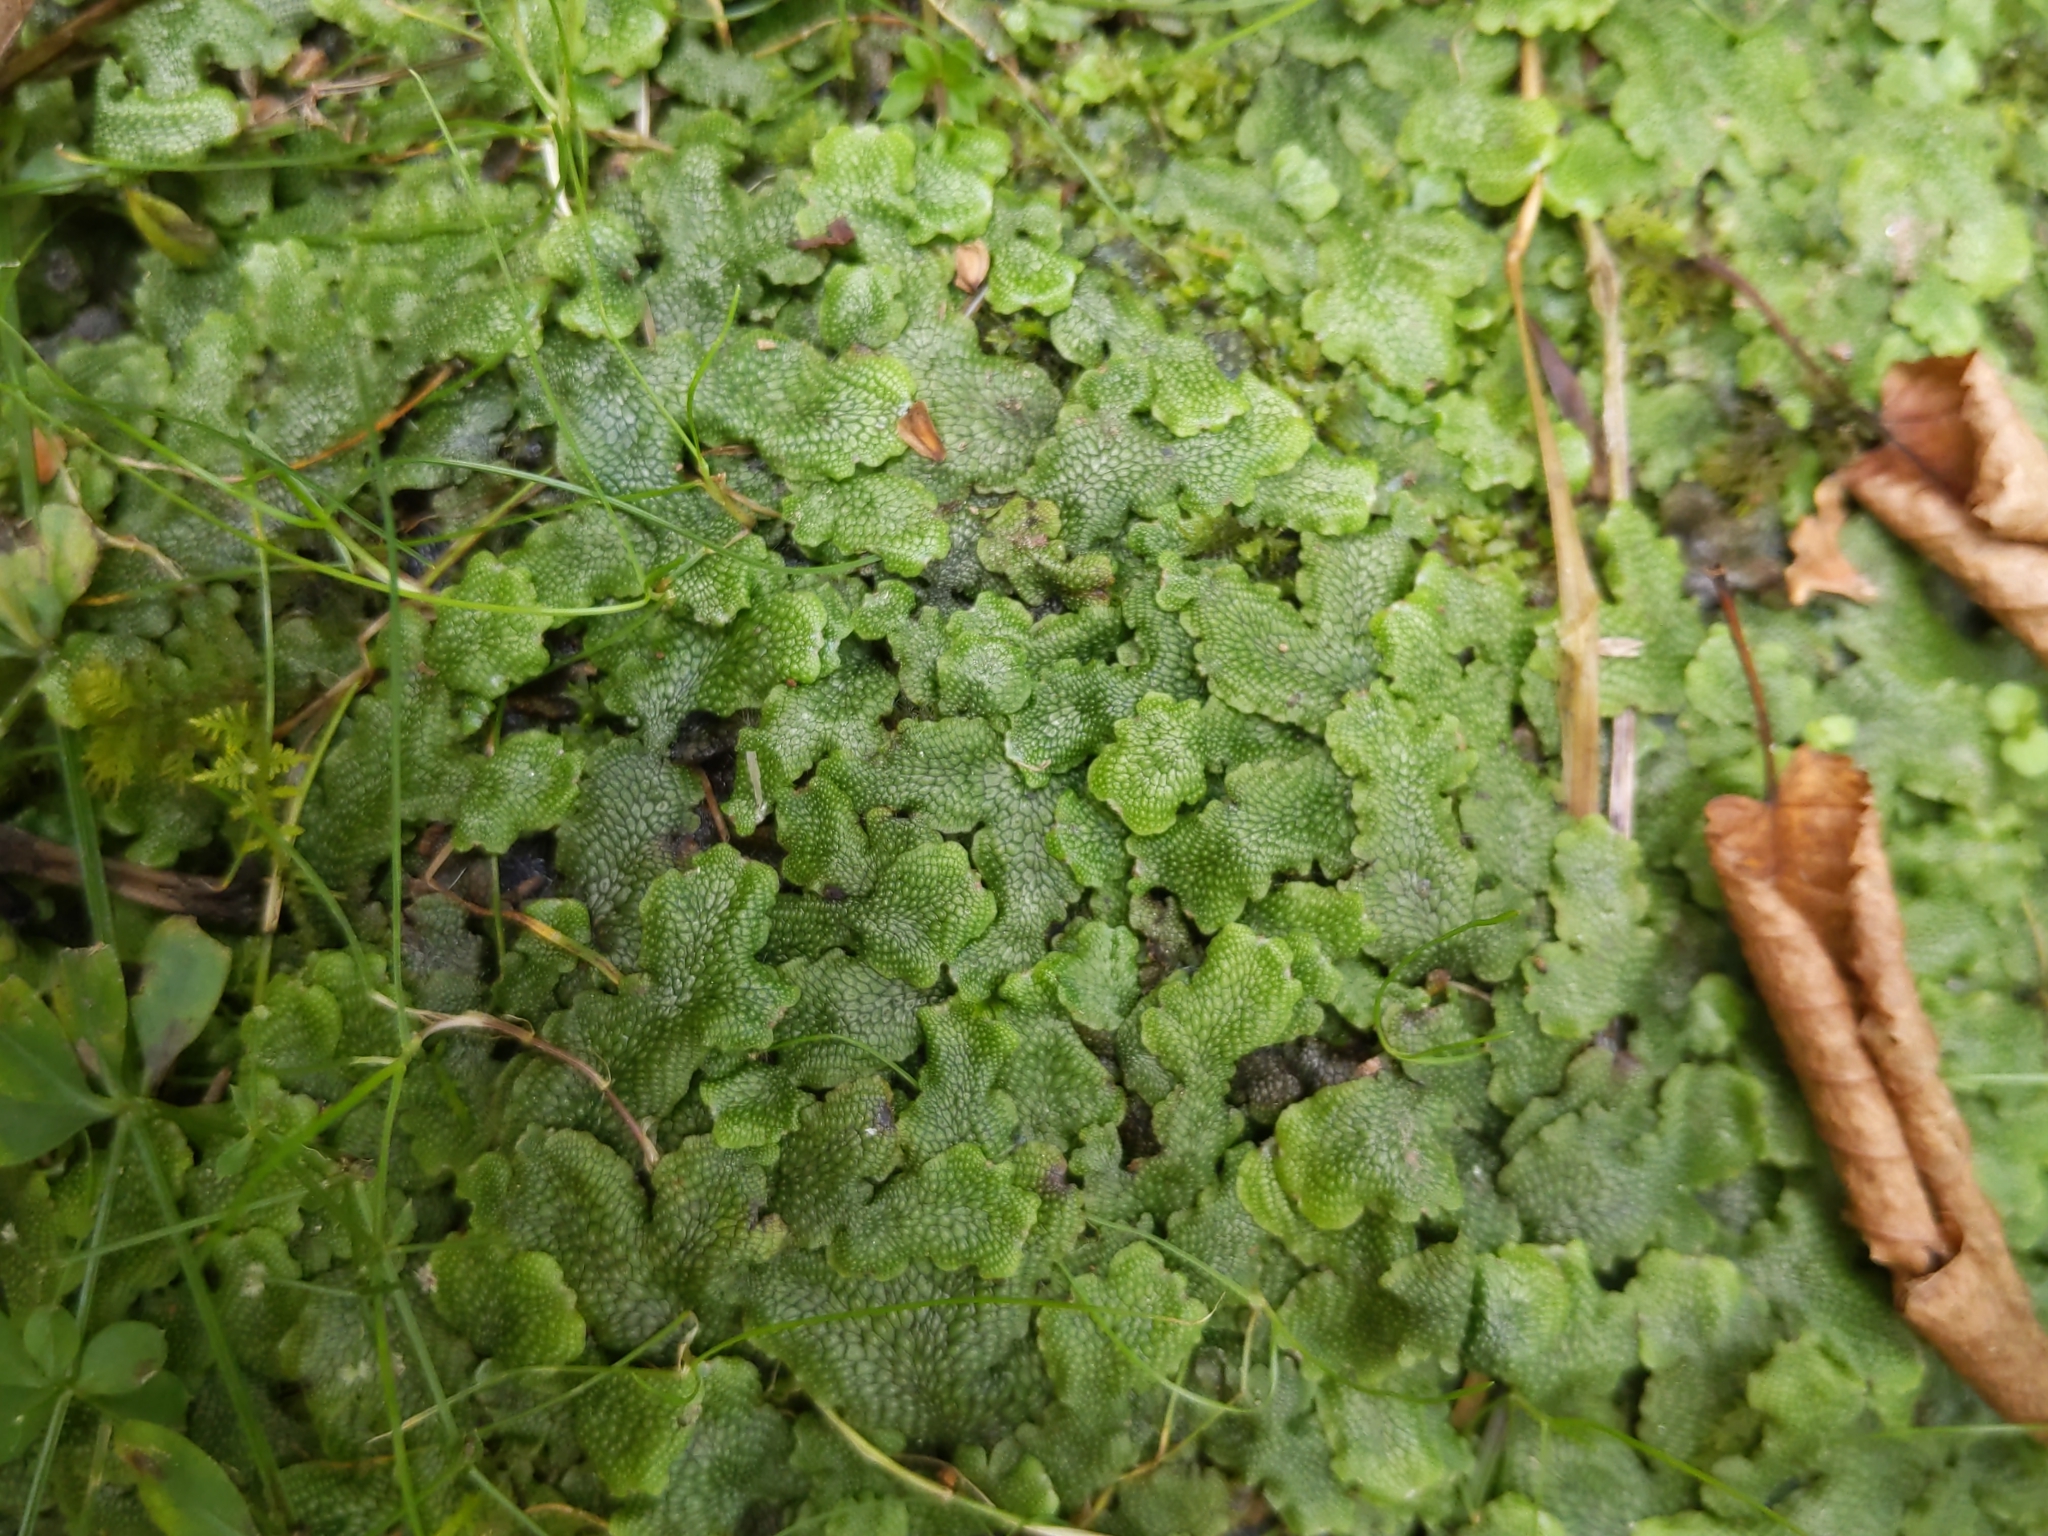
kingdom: Plantae
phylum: Marchantiophyta
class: Marchantiopsida
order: Marchantiales
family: Conocephalaceae
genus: Conocephalum
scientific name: Conocephalum salebrosum
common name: Cat-tongue liverwort
